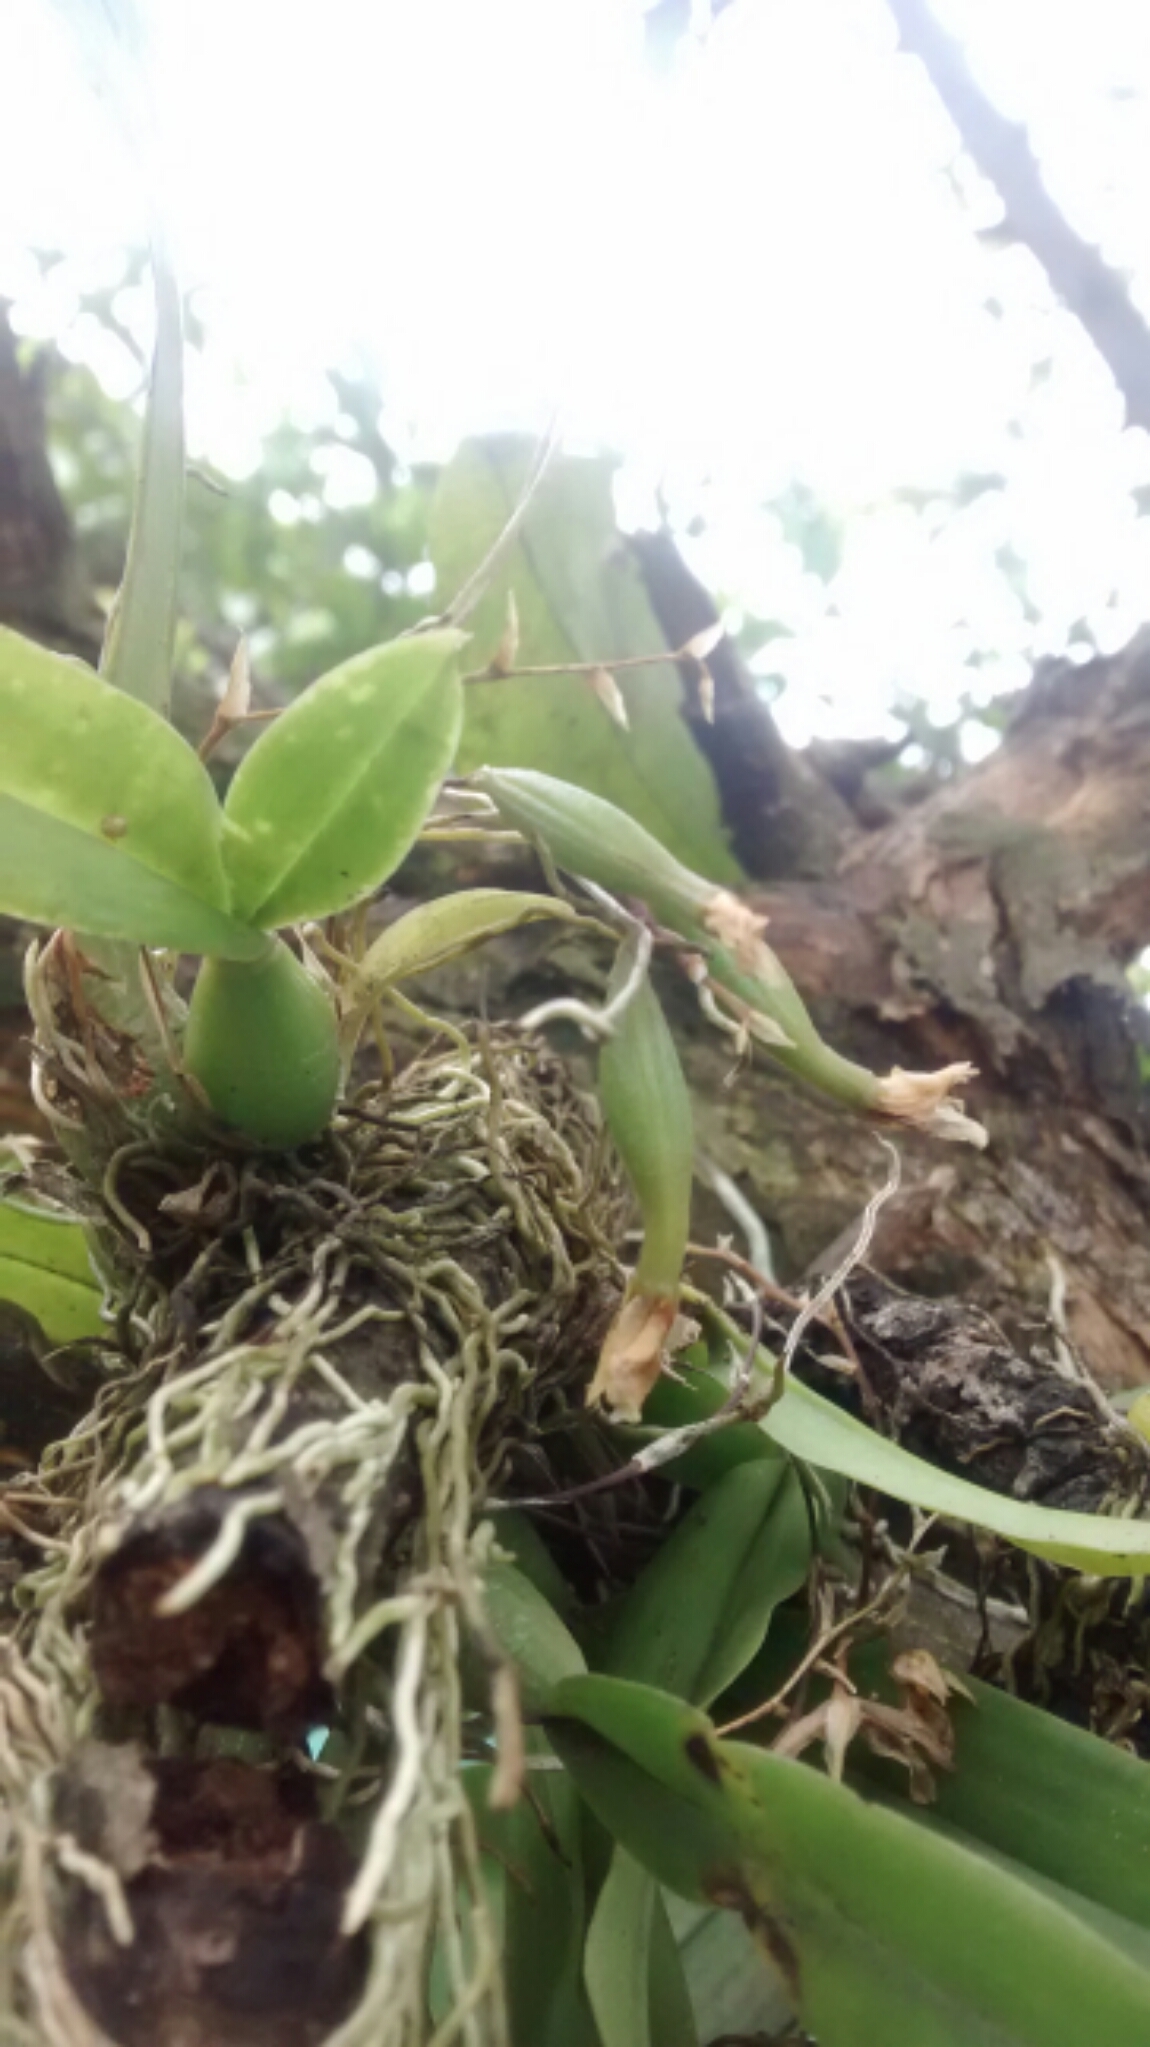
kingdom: Plantae
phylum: Tracheophyta
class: Liliopsida
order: Asparagales
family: Orchidaceae
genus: Leochilus
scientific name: Leochilus oncidioides
